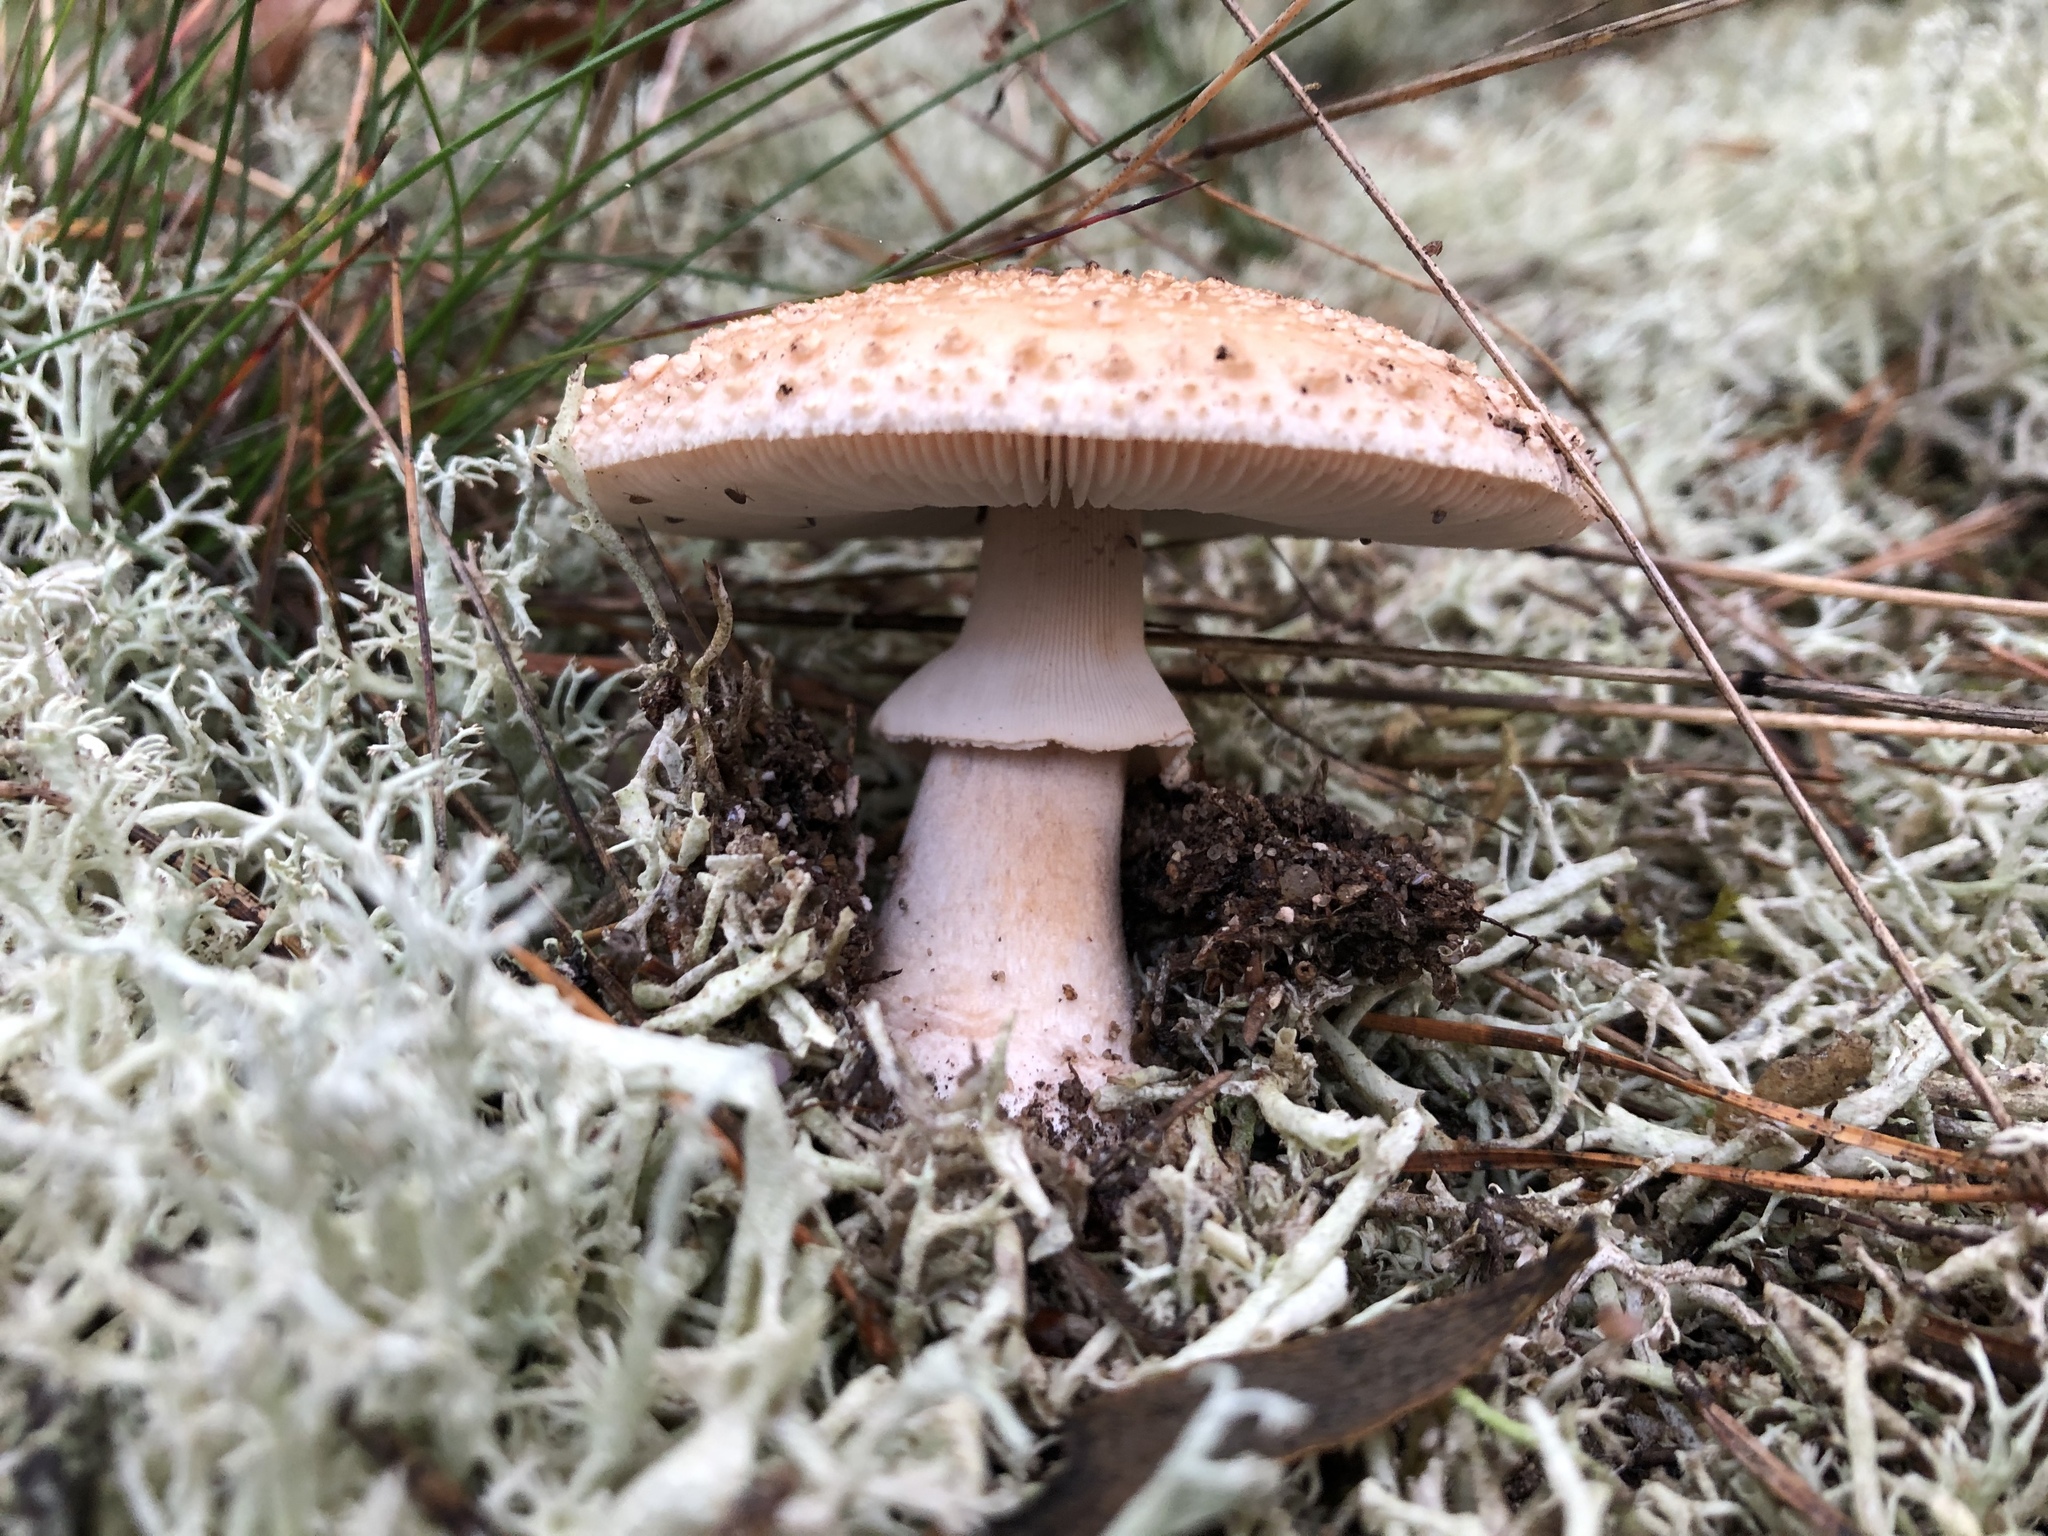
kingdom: Fungi
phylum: Basidiomycota
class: Agaricomycetes
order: Agaricales
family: Amanitaceae
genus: Amanita
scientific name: Amanita rubescens
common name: Blusher
